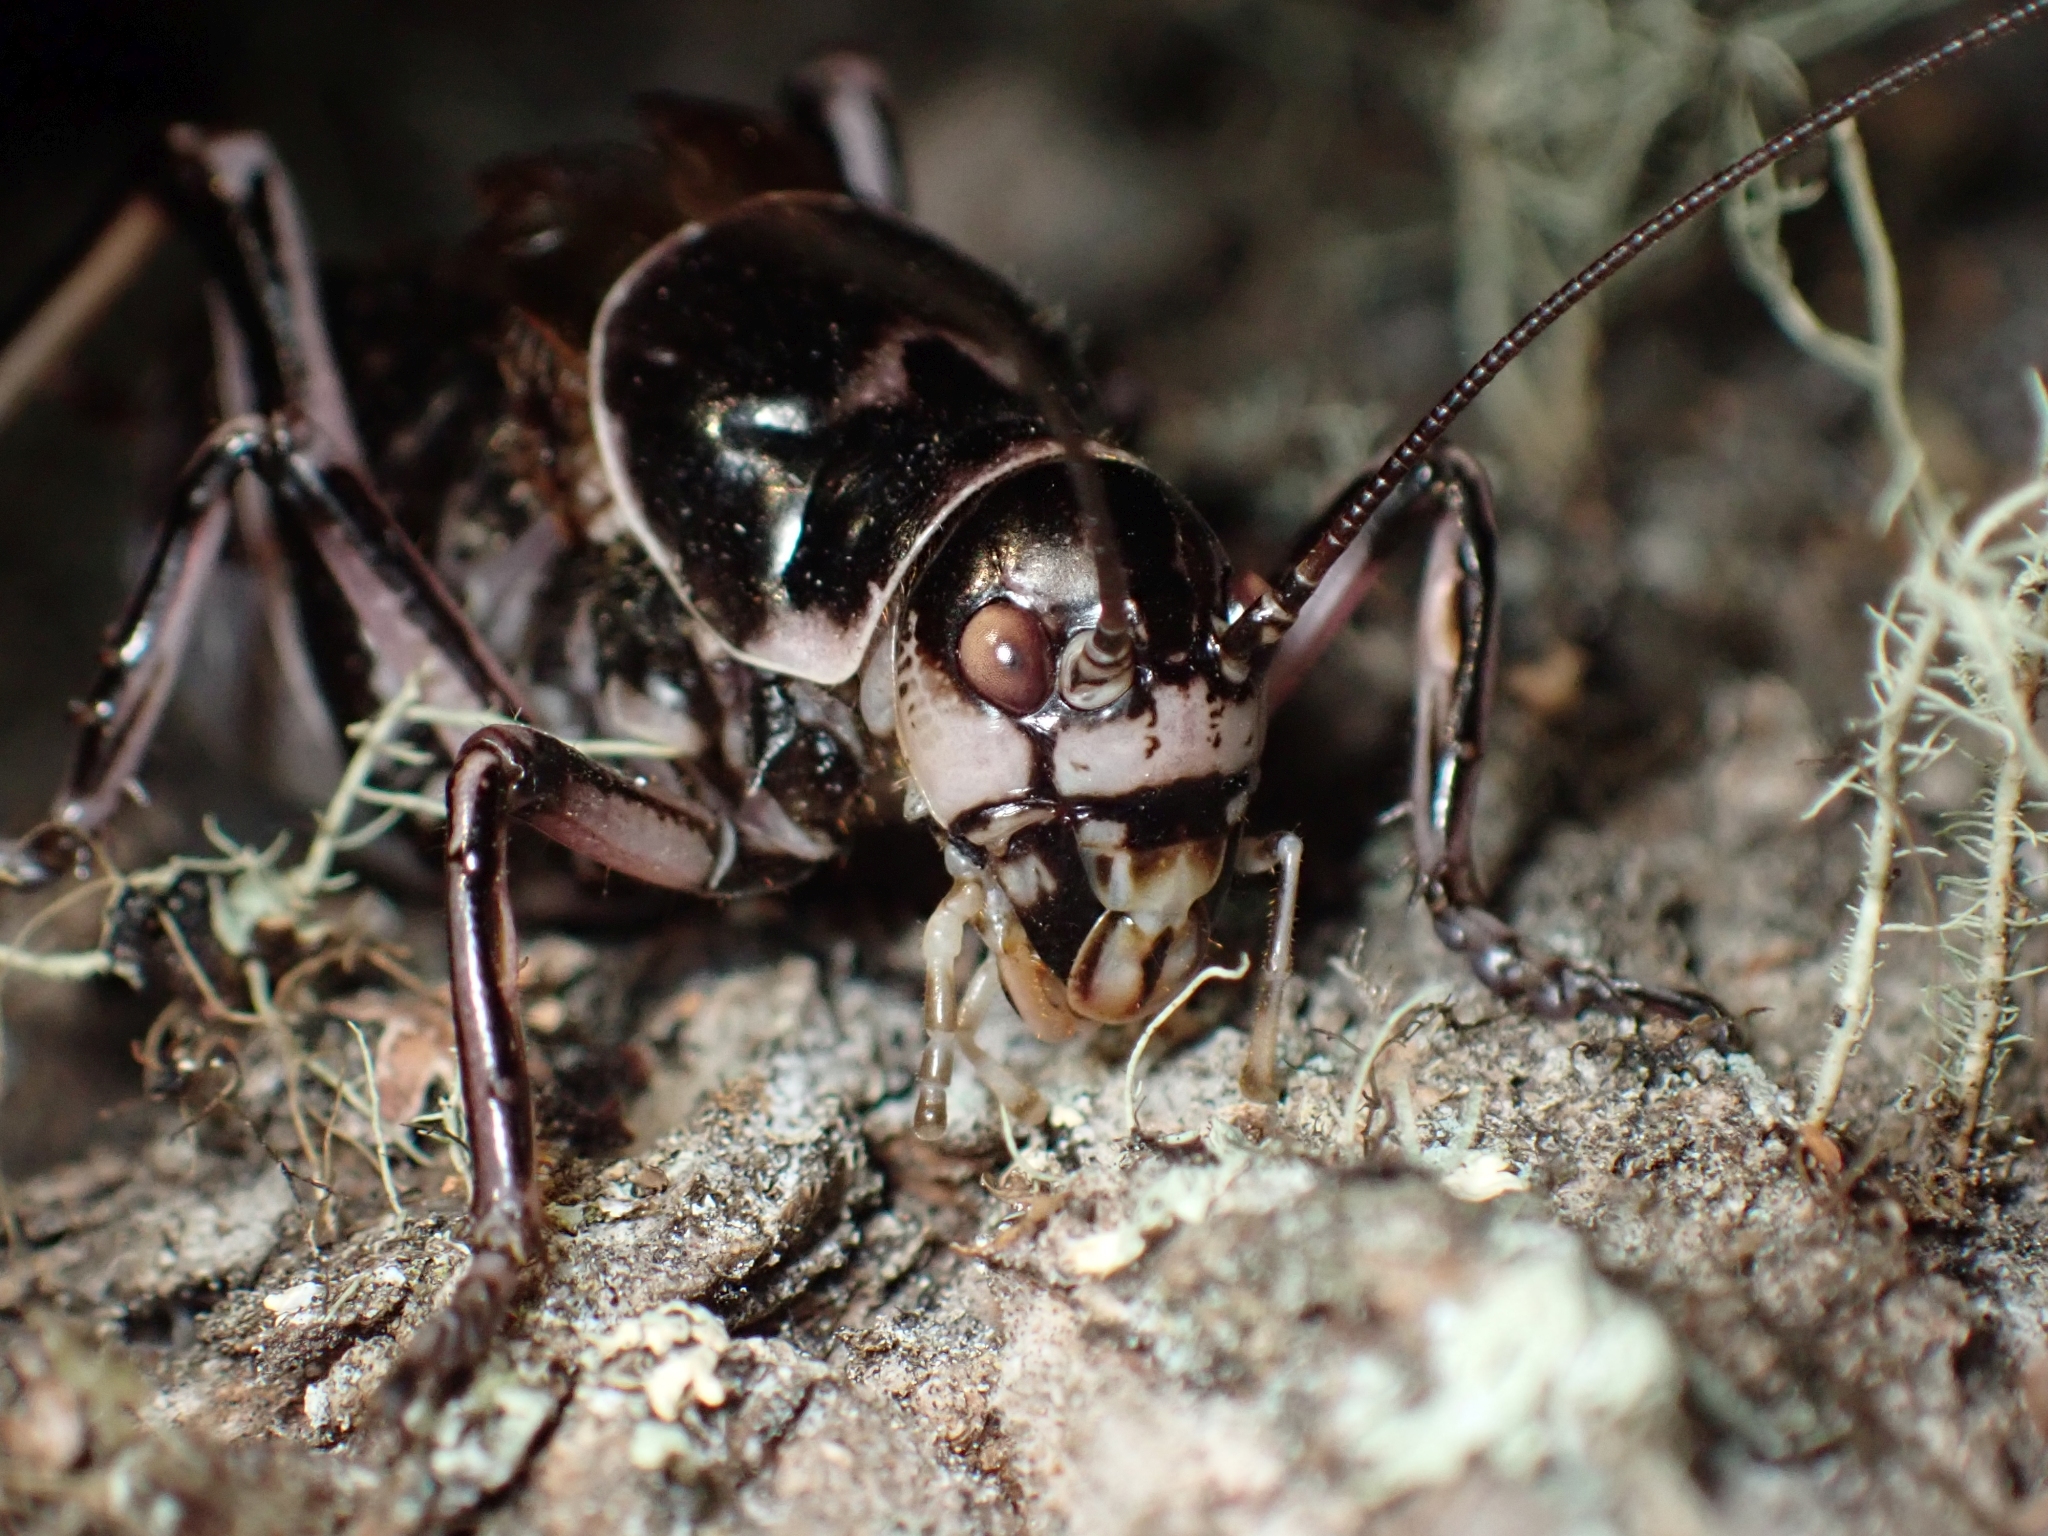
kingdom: Animalia
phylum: Arthropoda
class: Insecta
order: Orthoptera
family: Prophalangopsidae
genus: Cyphoderris
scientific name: Cyphoderris monstrosa
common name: Great grig
